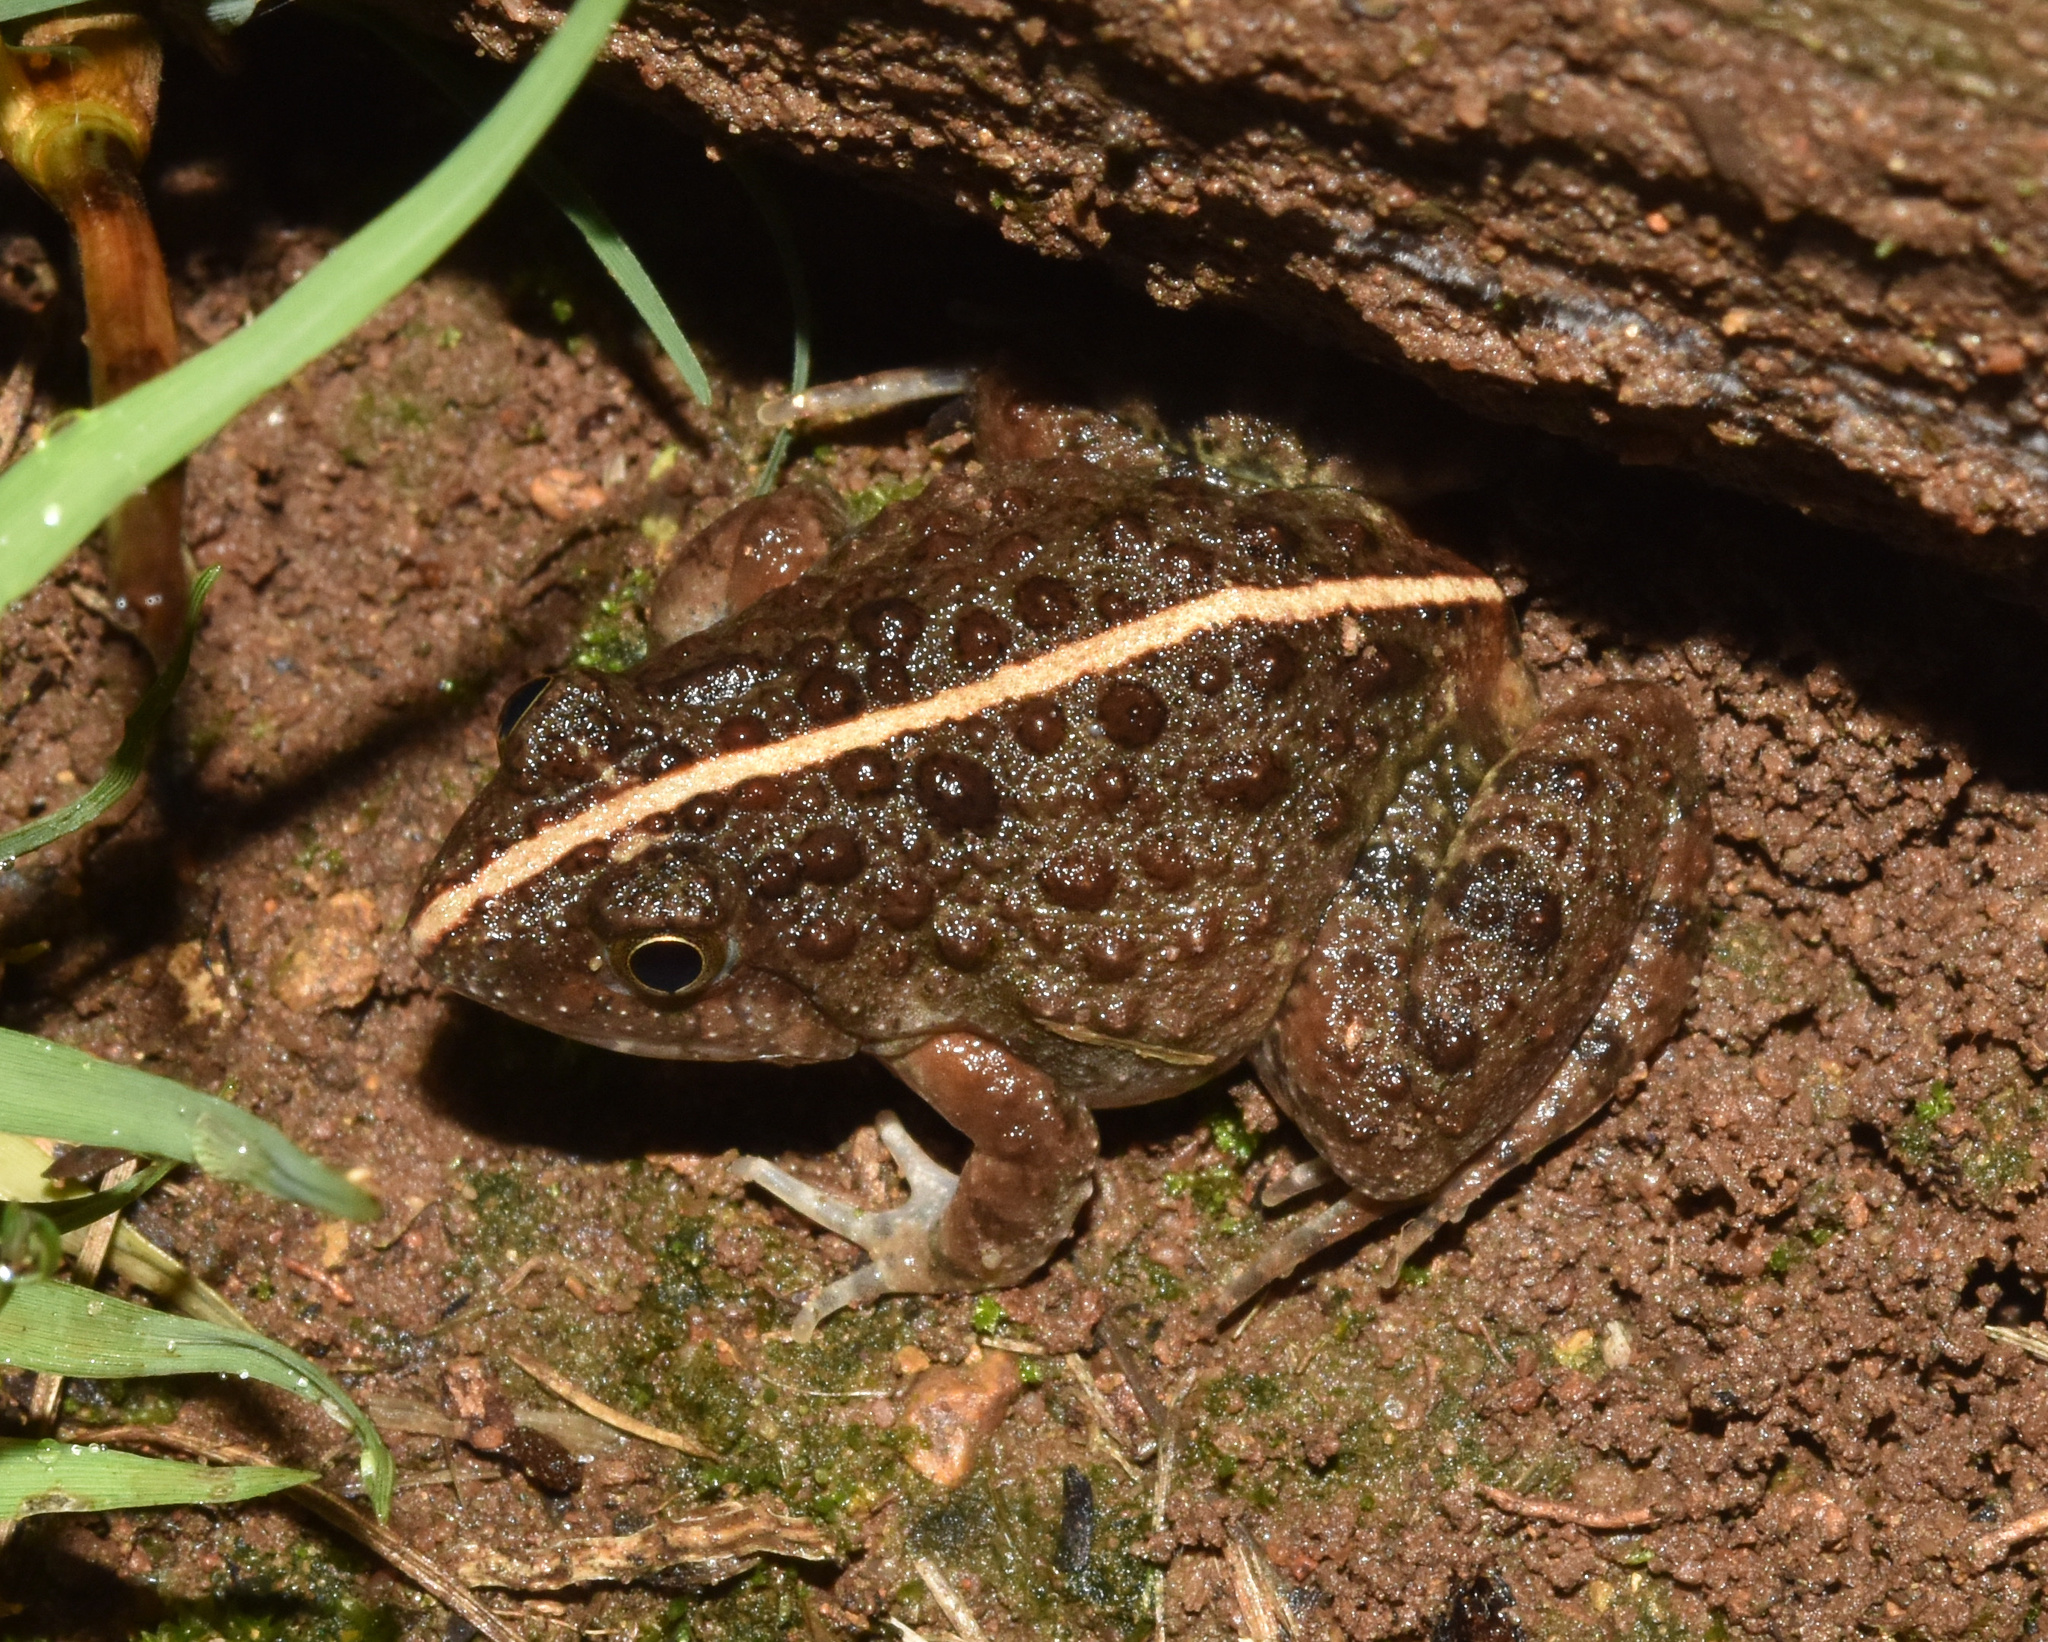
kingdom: Animalia
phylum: Chordata
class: Amphibia
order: Anura
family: Phrynobatrachidae
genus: Phrynobatrachus
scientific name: Phrynobatrachus natalensis
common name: Snoring puddle frog
